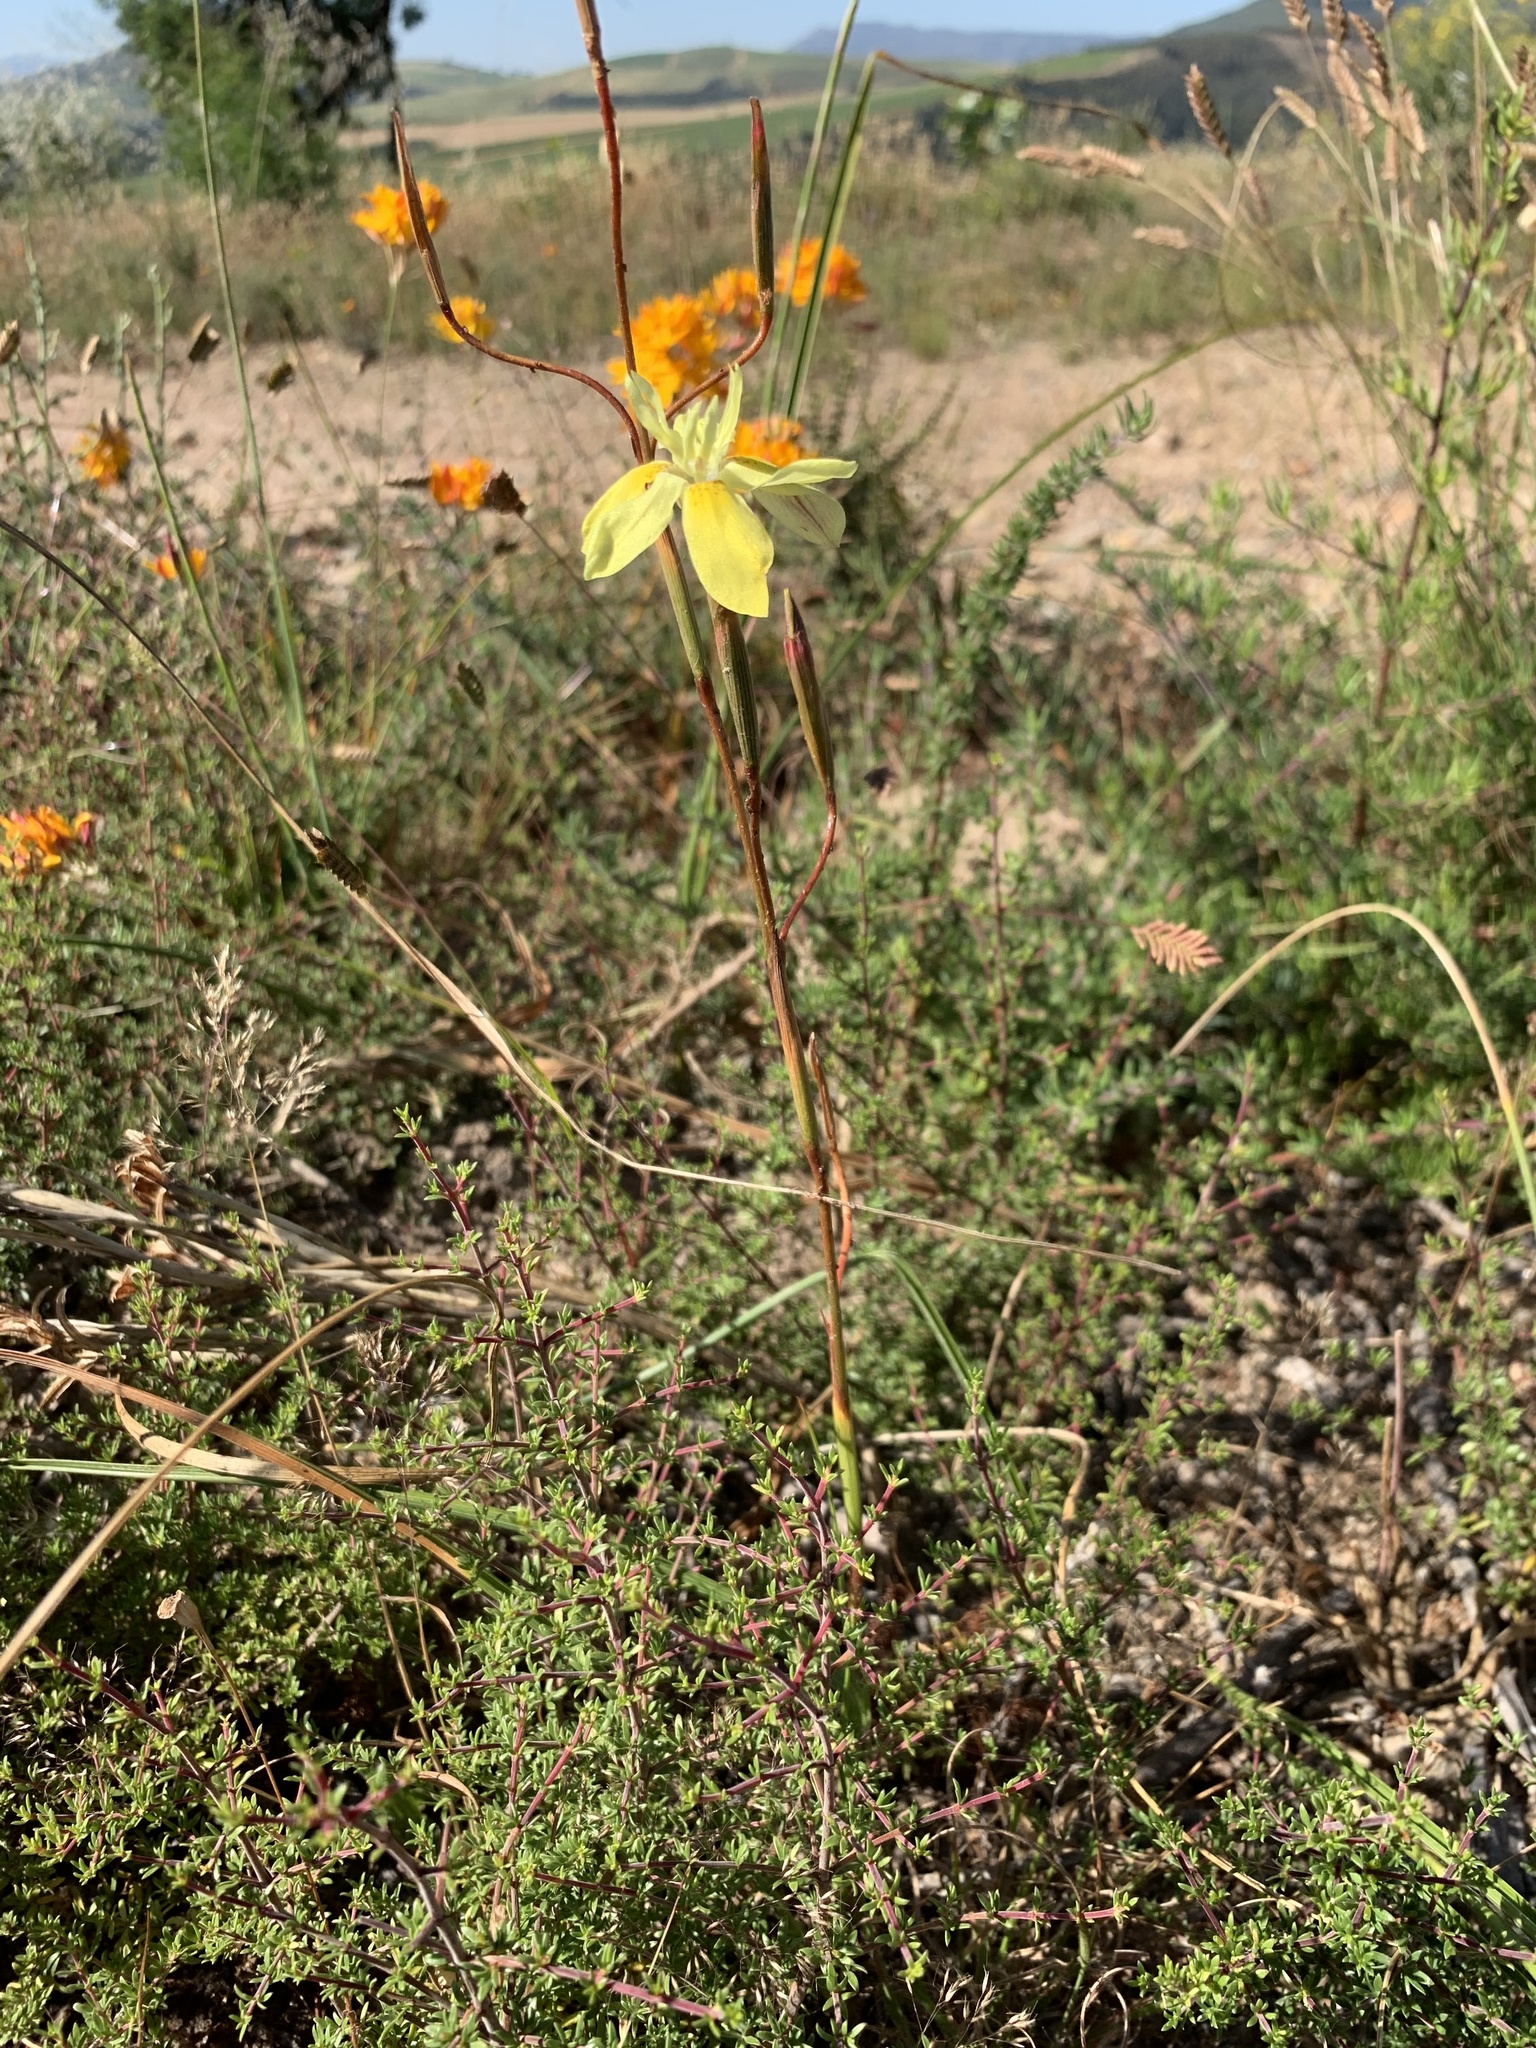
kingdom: Plantae
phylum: Tracheophyta
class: Liliopsida
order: Asparagales
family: Iridaceae
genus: Moraea
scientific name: Moraea bituminosa
